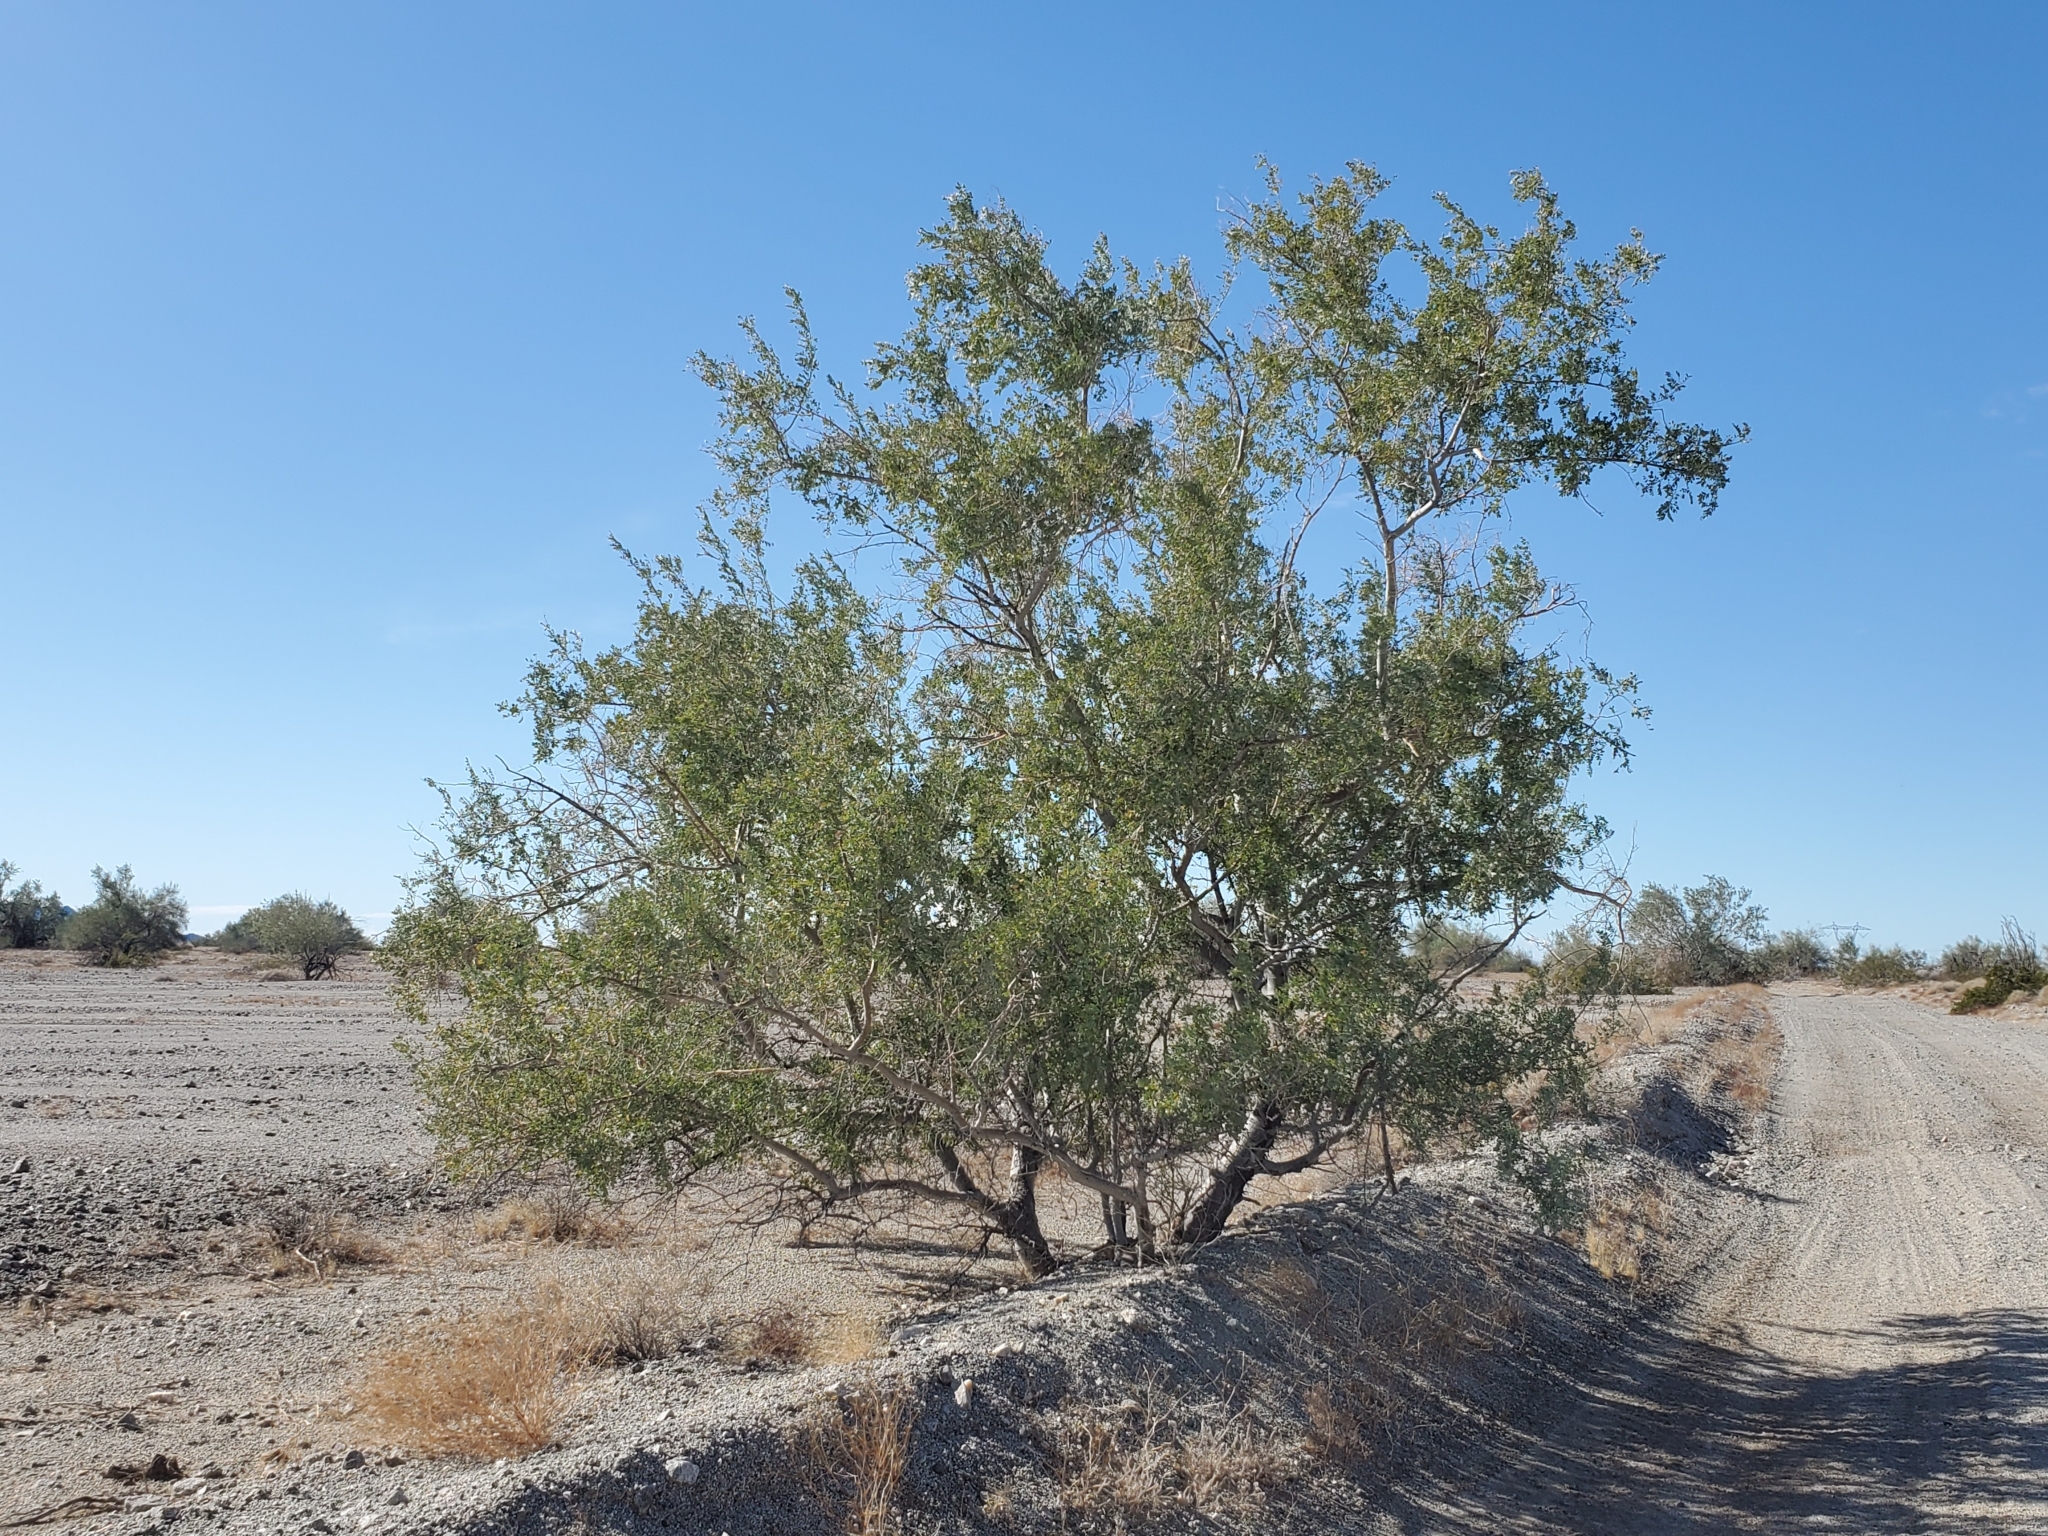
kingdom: Plantae
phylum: Tracheophyta
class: Magnoliopsida
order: Fabales
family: Fabaceae
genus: Olneya
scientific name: Olneya tesota
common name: Desert ironwood
